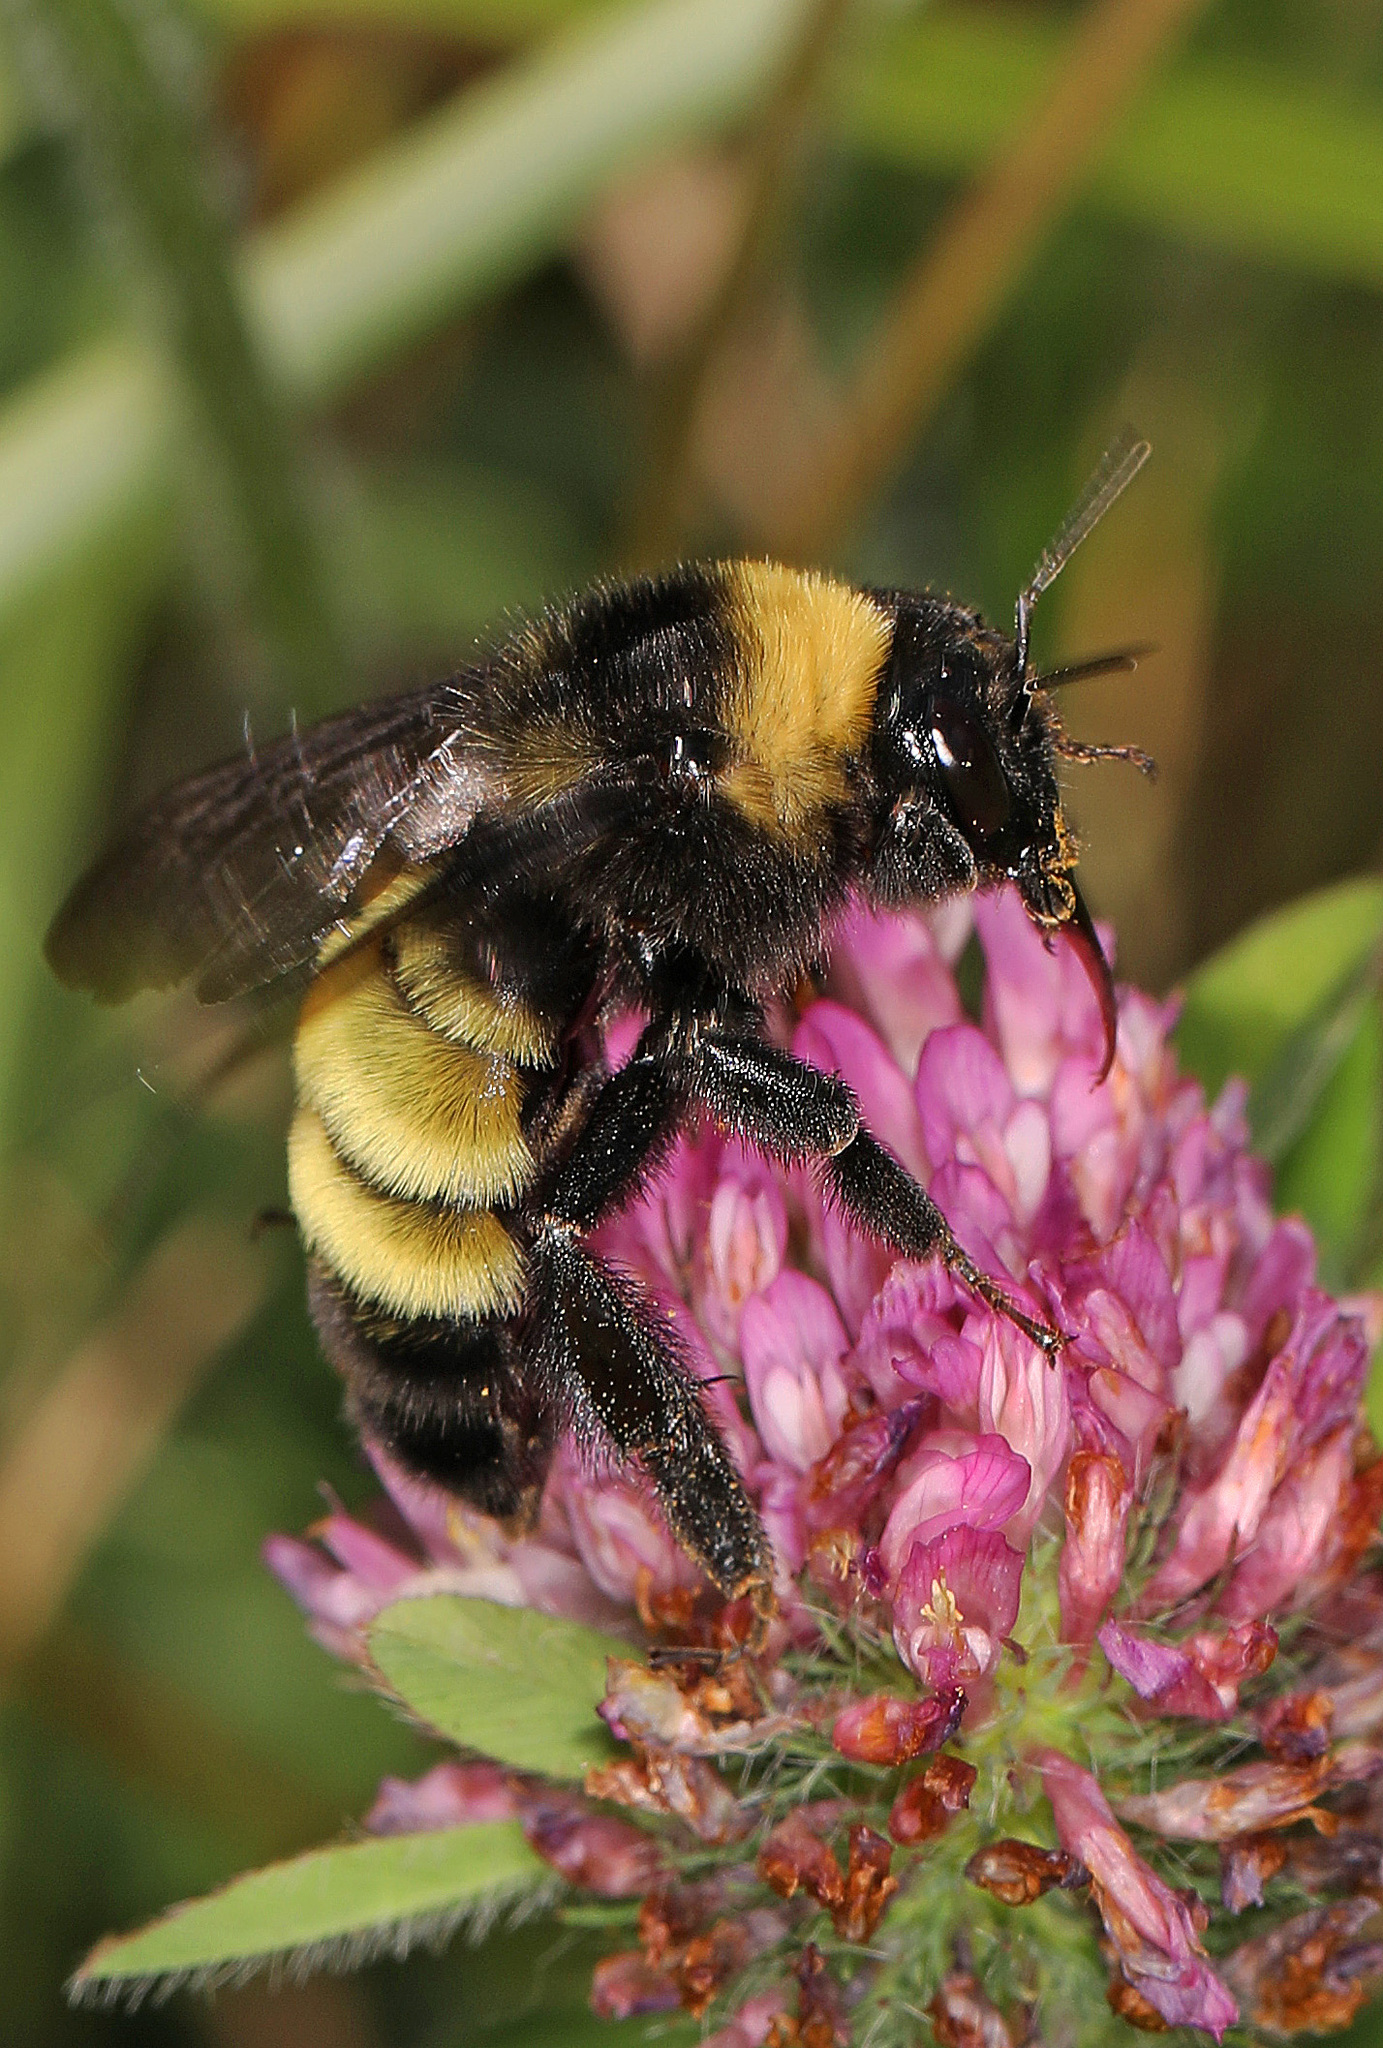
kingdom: Animalia
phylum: Arthropoda
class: Insecta
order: Hymenoptera
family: Apidae
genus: Bombus
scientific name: Bombus pensylvanicus
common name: Bumble bee
